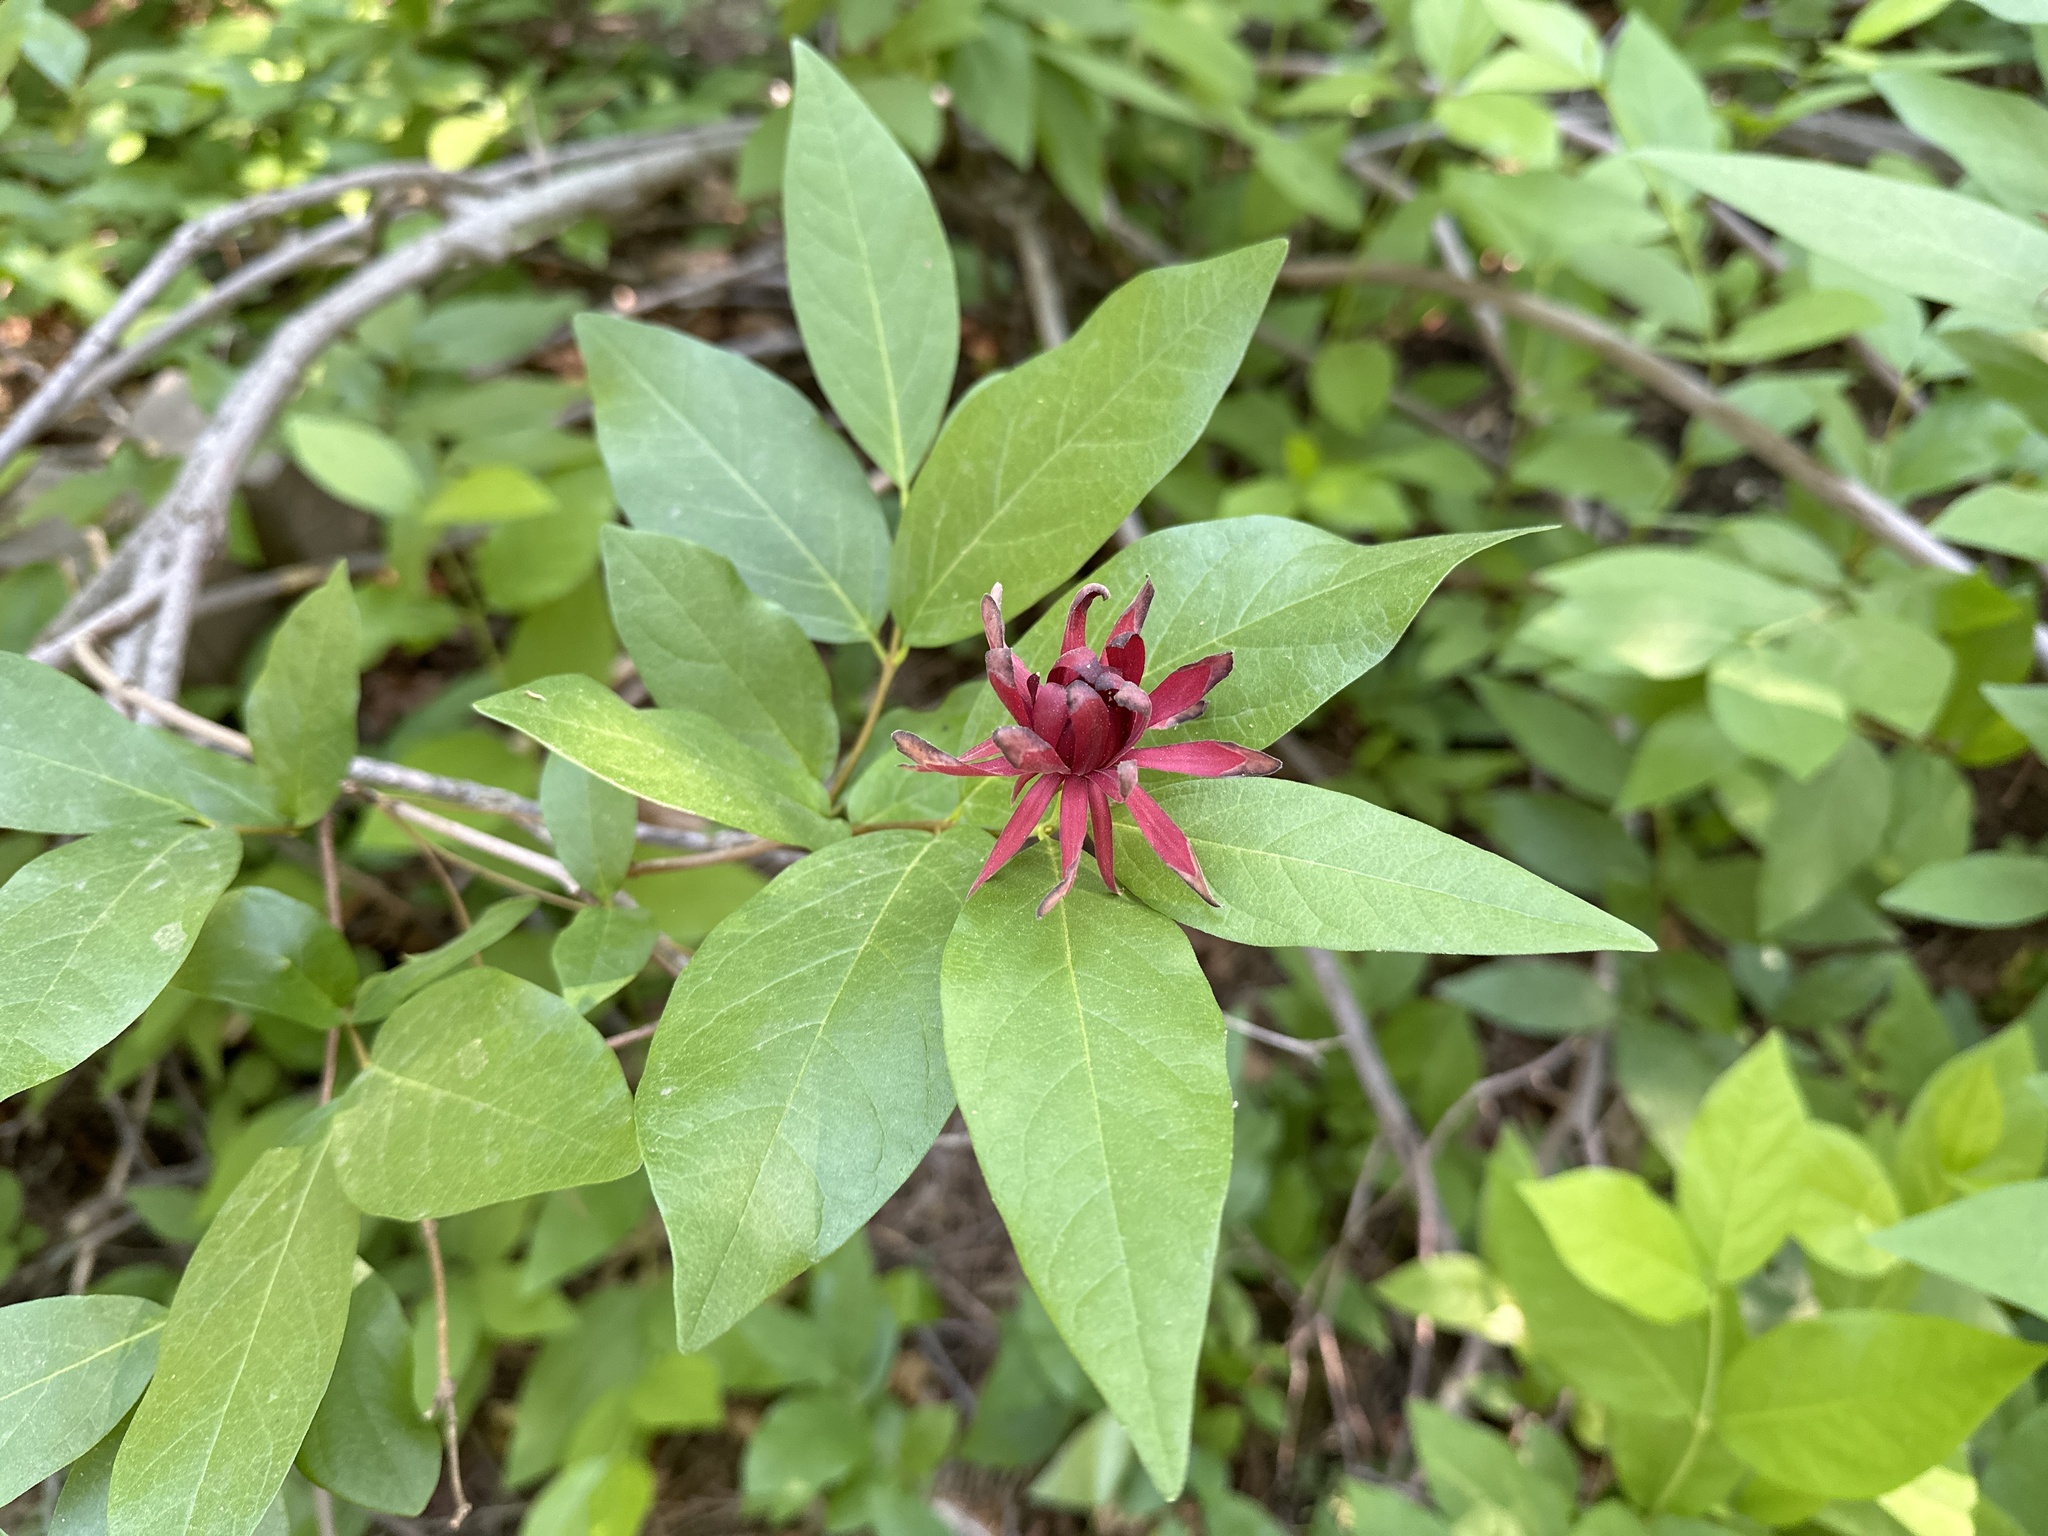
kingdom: Plantae
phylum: Tracheophyta
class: Magnoliopsida
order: Laurales
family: Calycanthaceae
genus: Calycanthus
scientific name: Calycanthus occidentalis
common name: California spicebush
